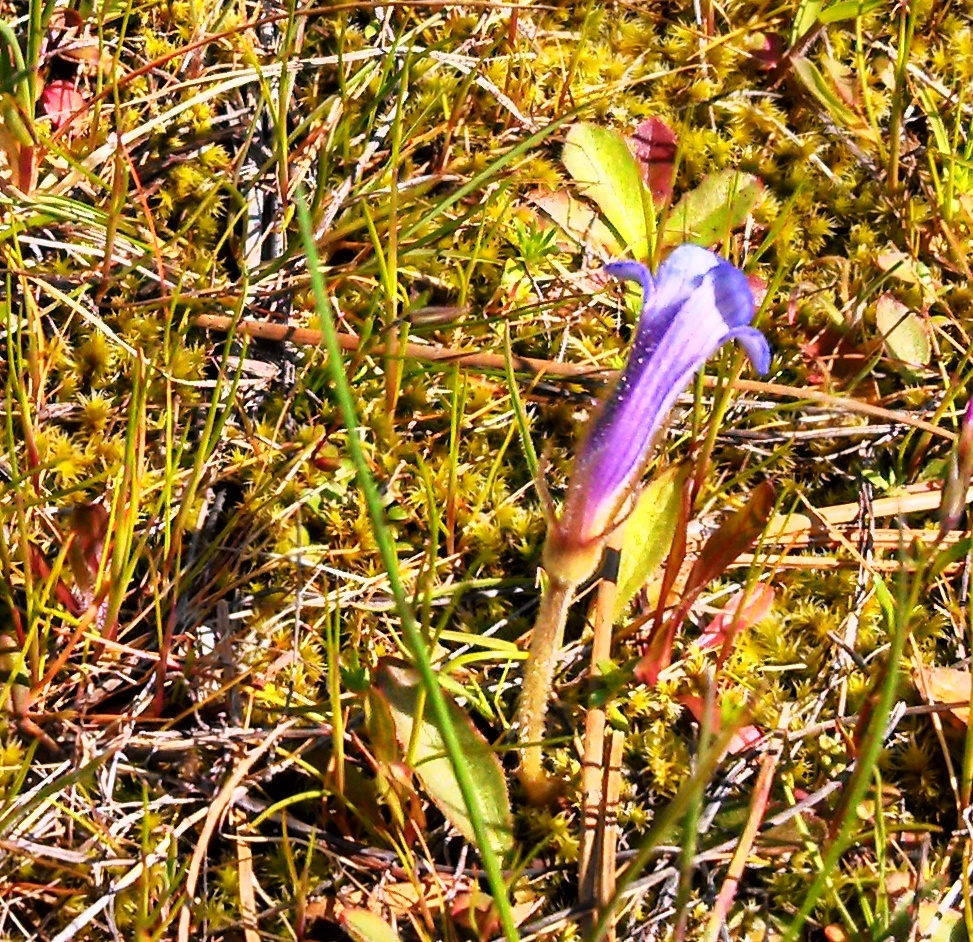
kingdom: Plantae
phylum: Tracheophyta
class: Magnoliopsida
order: Lamiales
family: Orobanchaceae
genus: Aphyllon
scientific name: Aphyllon uniflorum
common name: One-flowered broomrape
